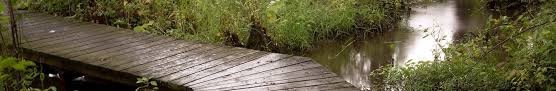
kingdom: Plantae
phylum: Tracheophyta
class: Magnoliopsida
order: Ericales
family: Sarraceniaceae
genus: Sarracenia
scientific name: Sarracenia purpurea
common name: Pitcherplant
